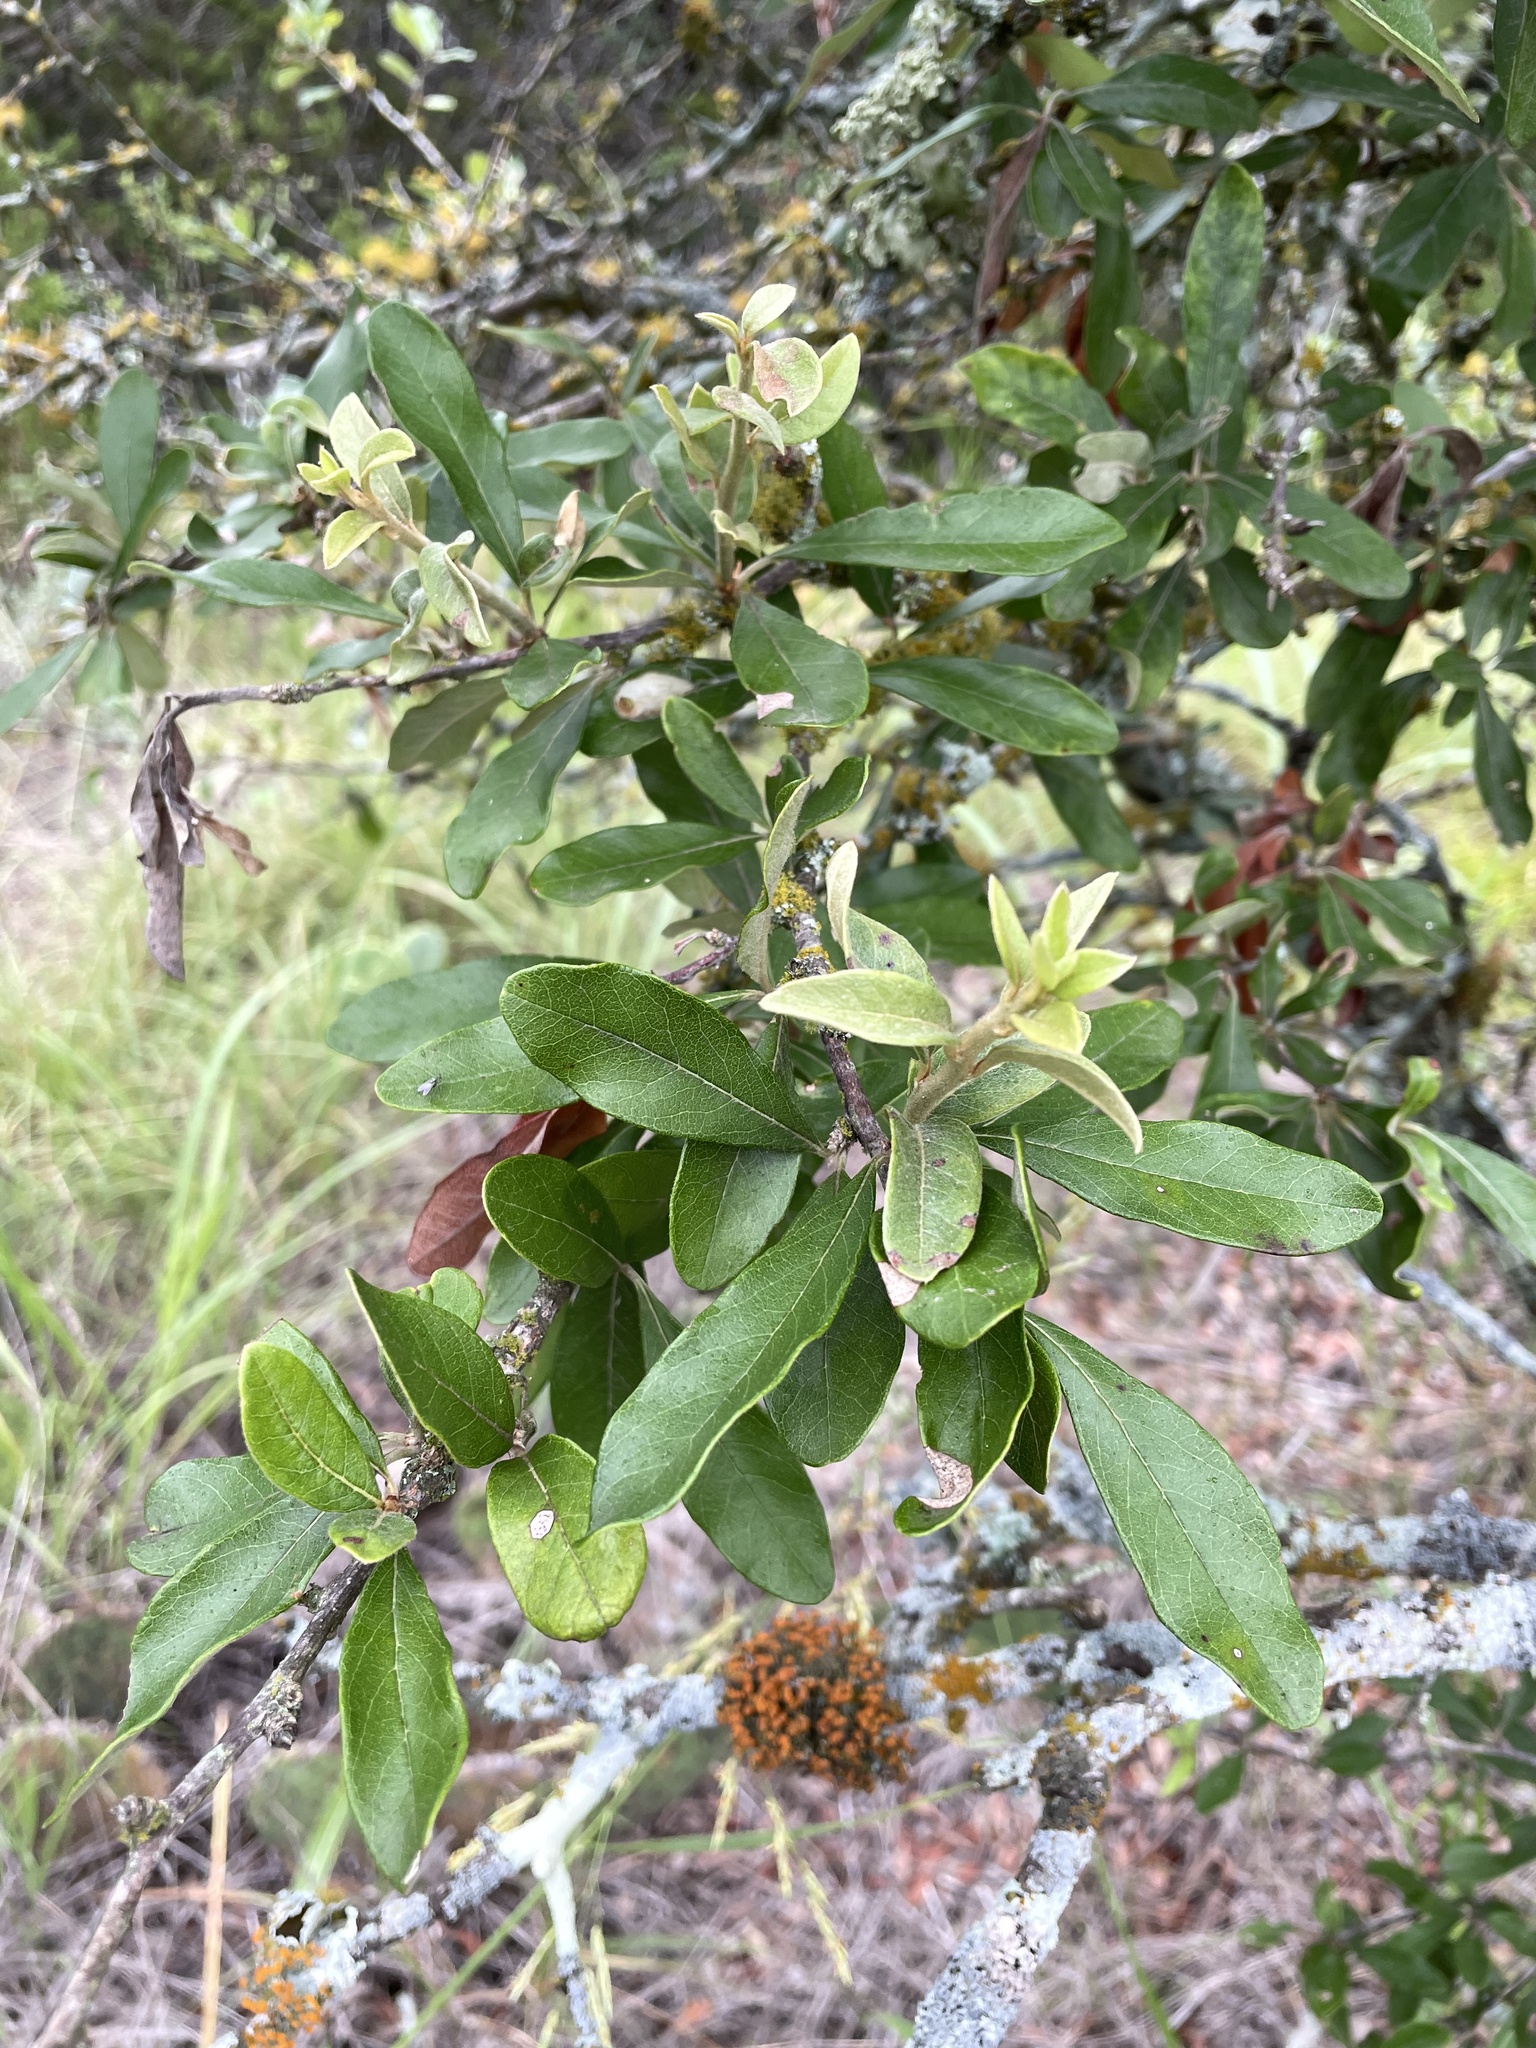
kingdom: Plantae
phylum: Tracheophyta
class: Magnoliopsida
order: Ericales
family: Sapotaceae
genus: Sideroxylon
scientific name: Sideroxylon lanuginosum
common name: Chittamwood
